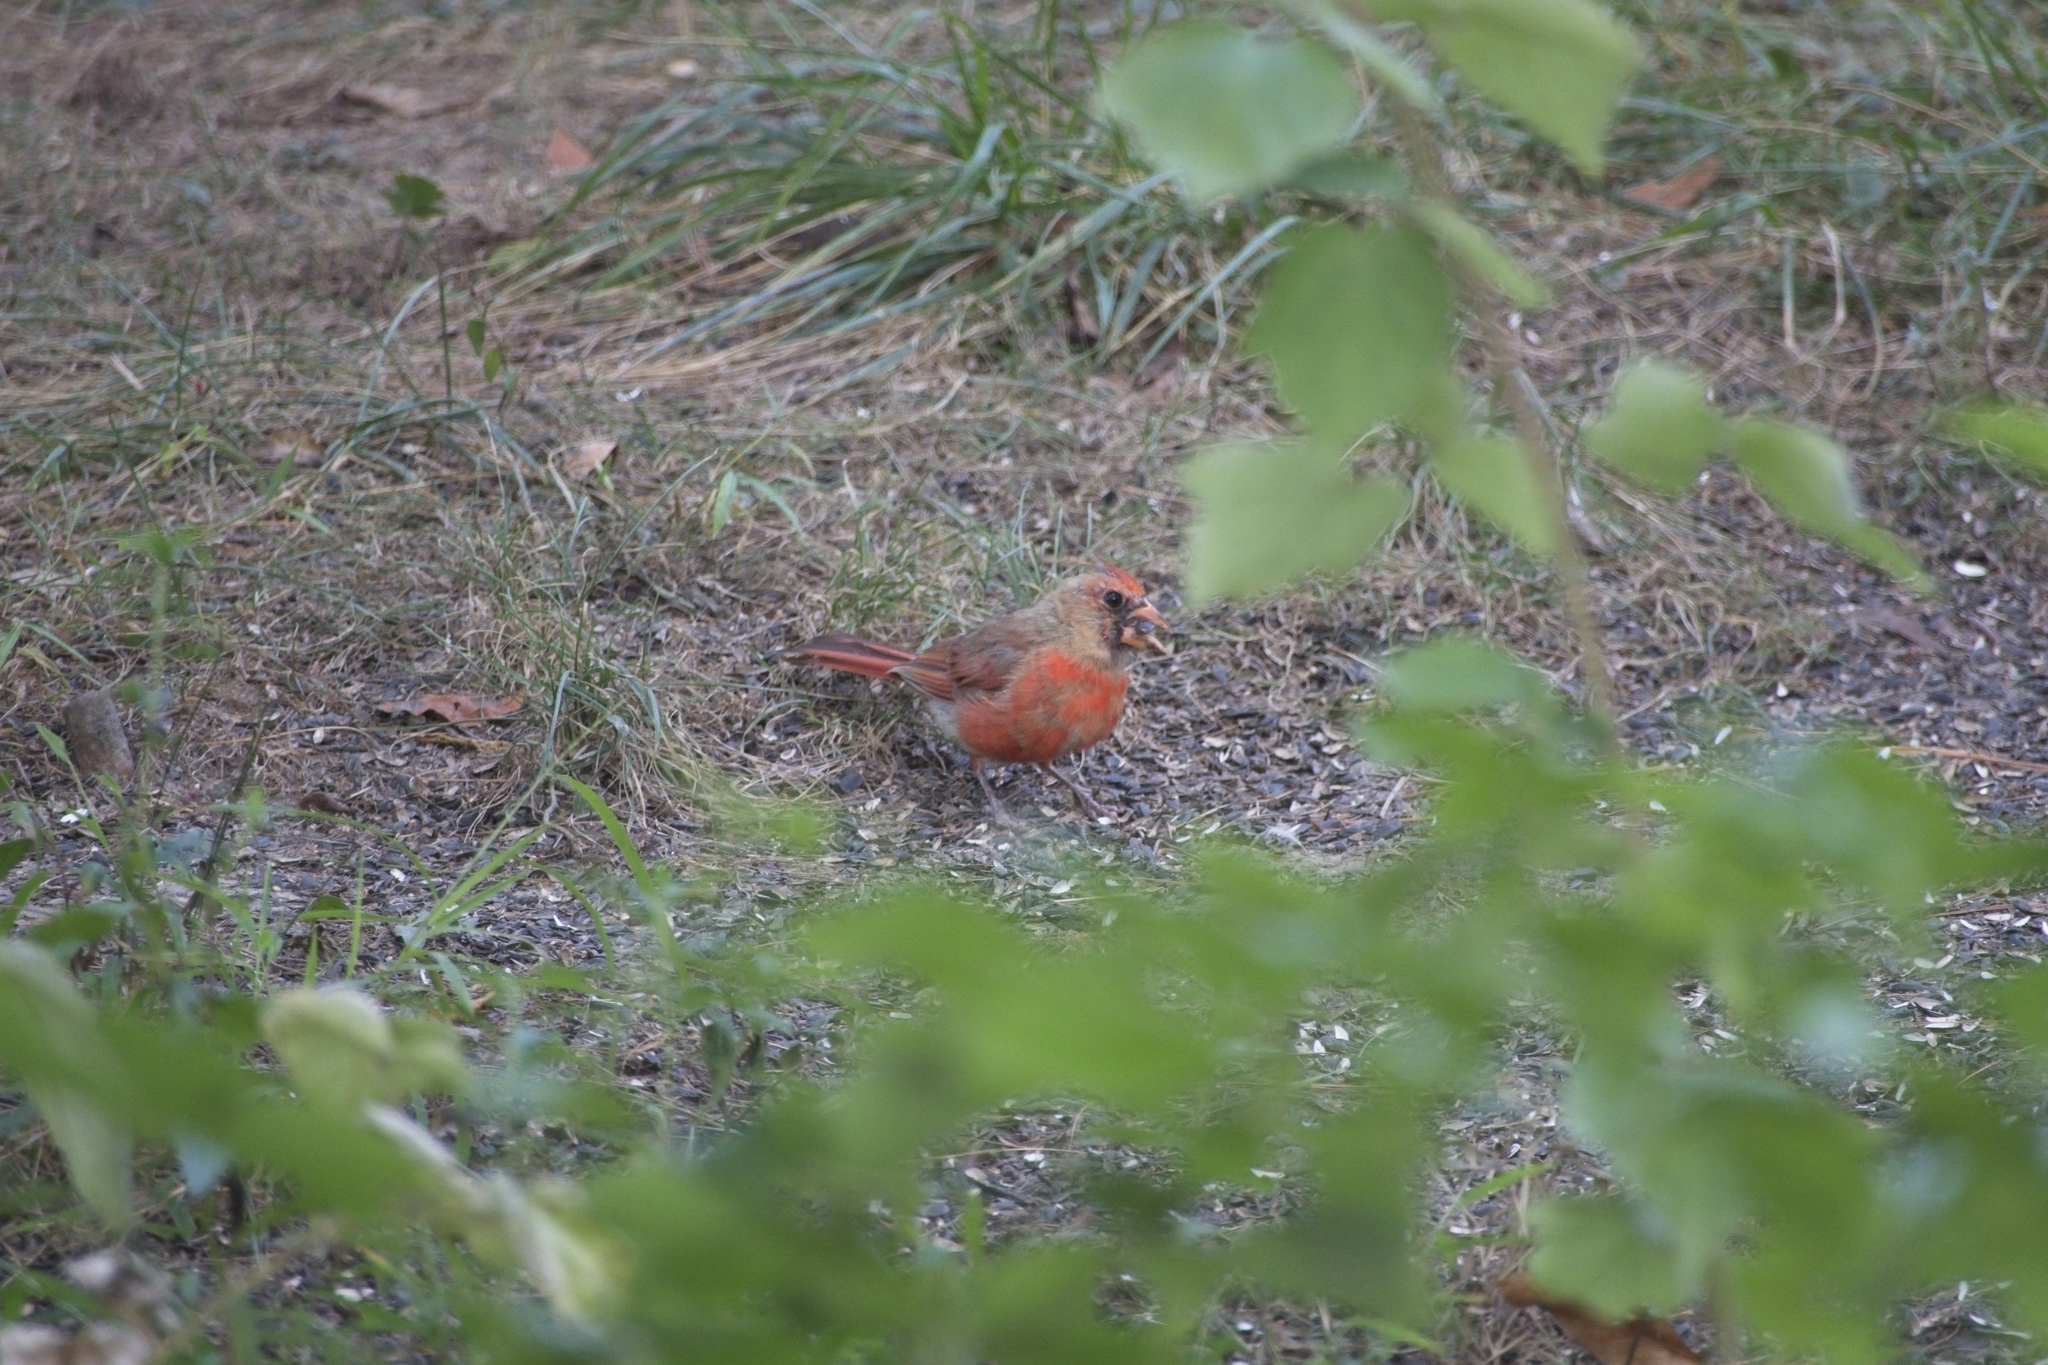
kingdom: Animalia
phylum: Chordata
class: Aves
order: Passeriformes
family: Cardinalidae
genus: Cardinalis
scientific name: Cardinalis cardinalis
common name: Northern cardinal
